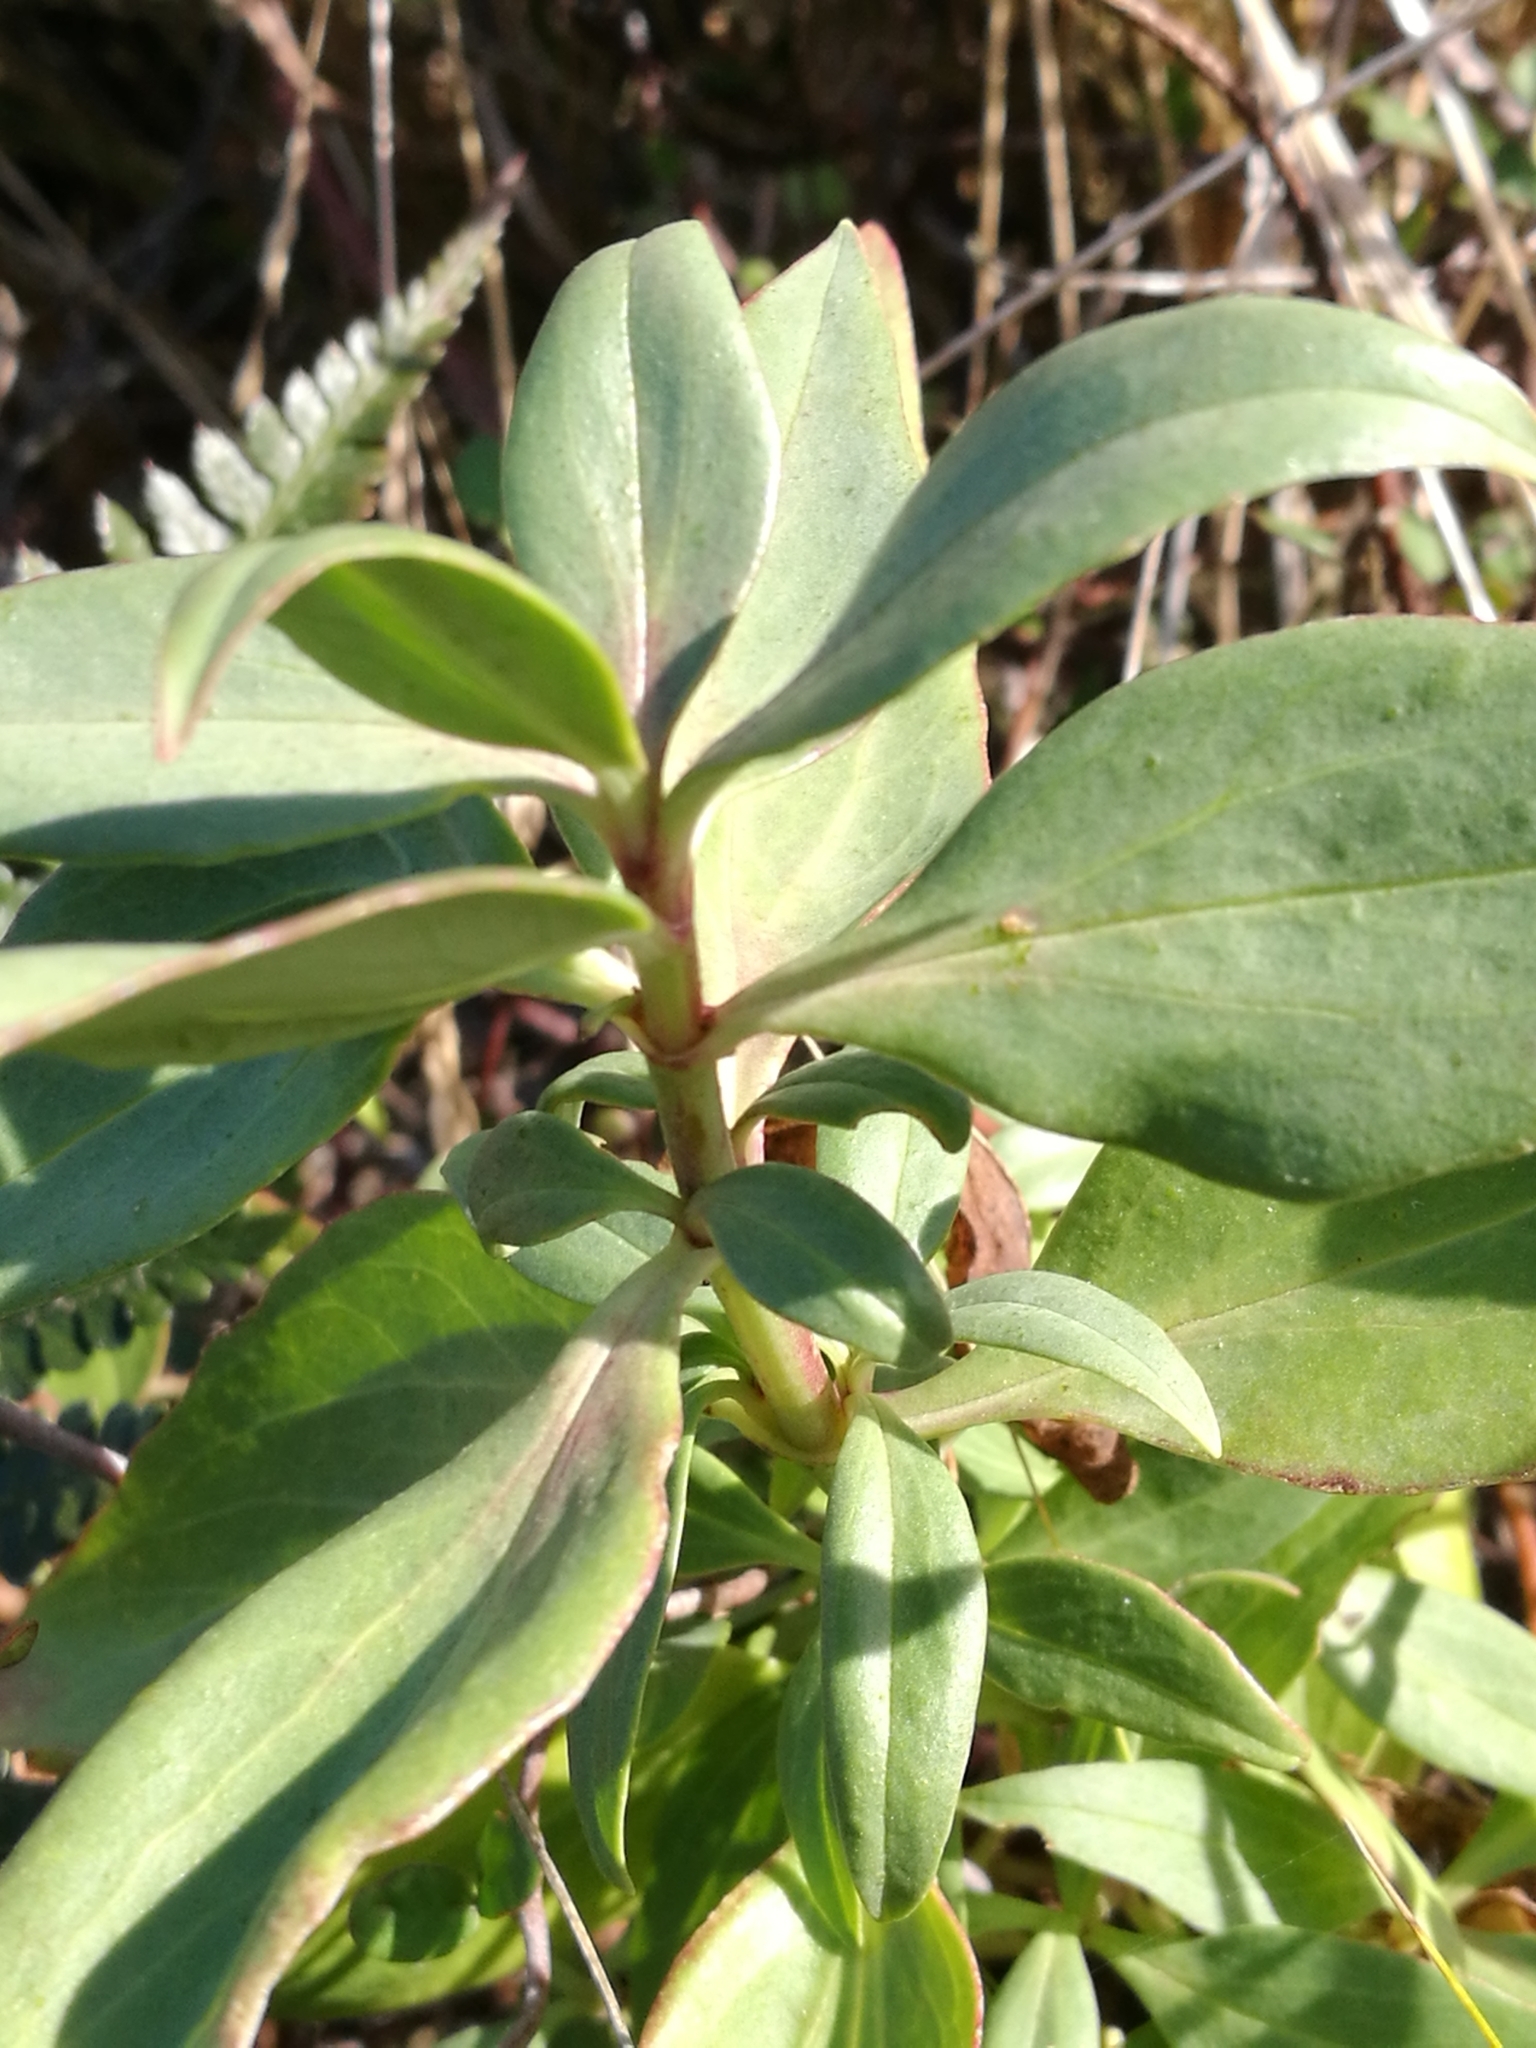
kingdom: Plantae
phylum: Tracheophyta
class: Magnoliopsida
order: Dipsacales
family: Caprifoliaceae
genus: Centranthus
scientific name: Centranthus ruber
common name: Red valerian
